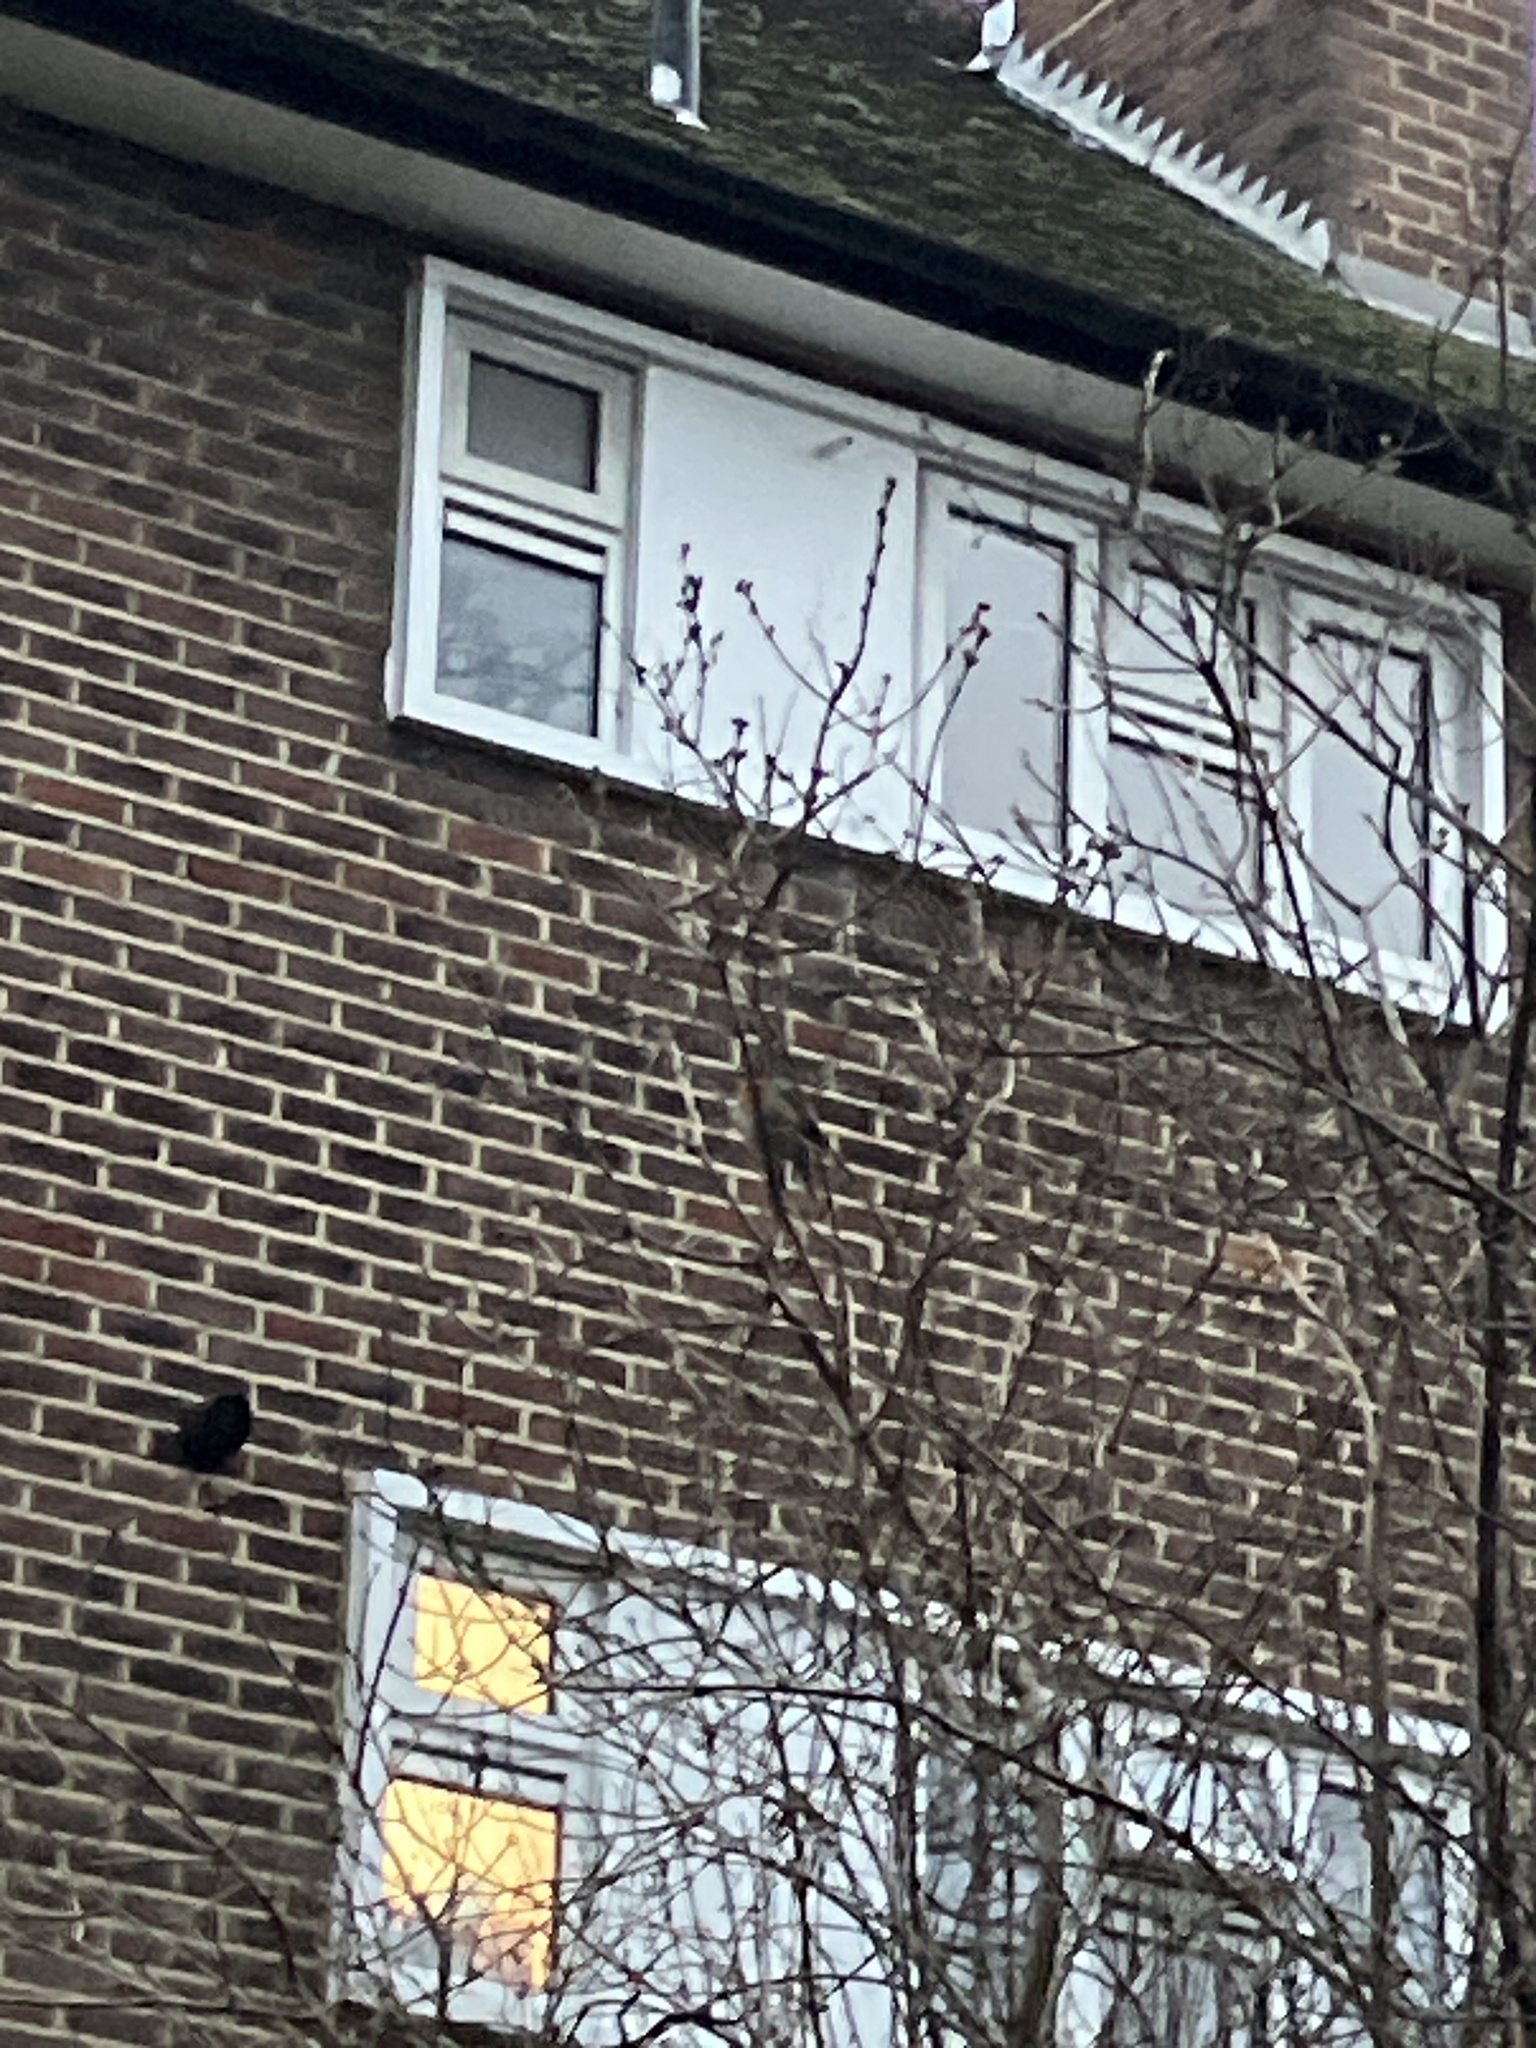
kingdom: Animalia
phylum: Chordata
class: Aves
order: Passeriformes
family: Muscicapidae
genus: Erithacus
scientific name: Erithacus rubecula
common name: European robin
